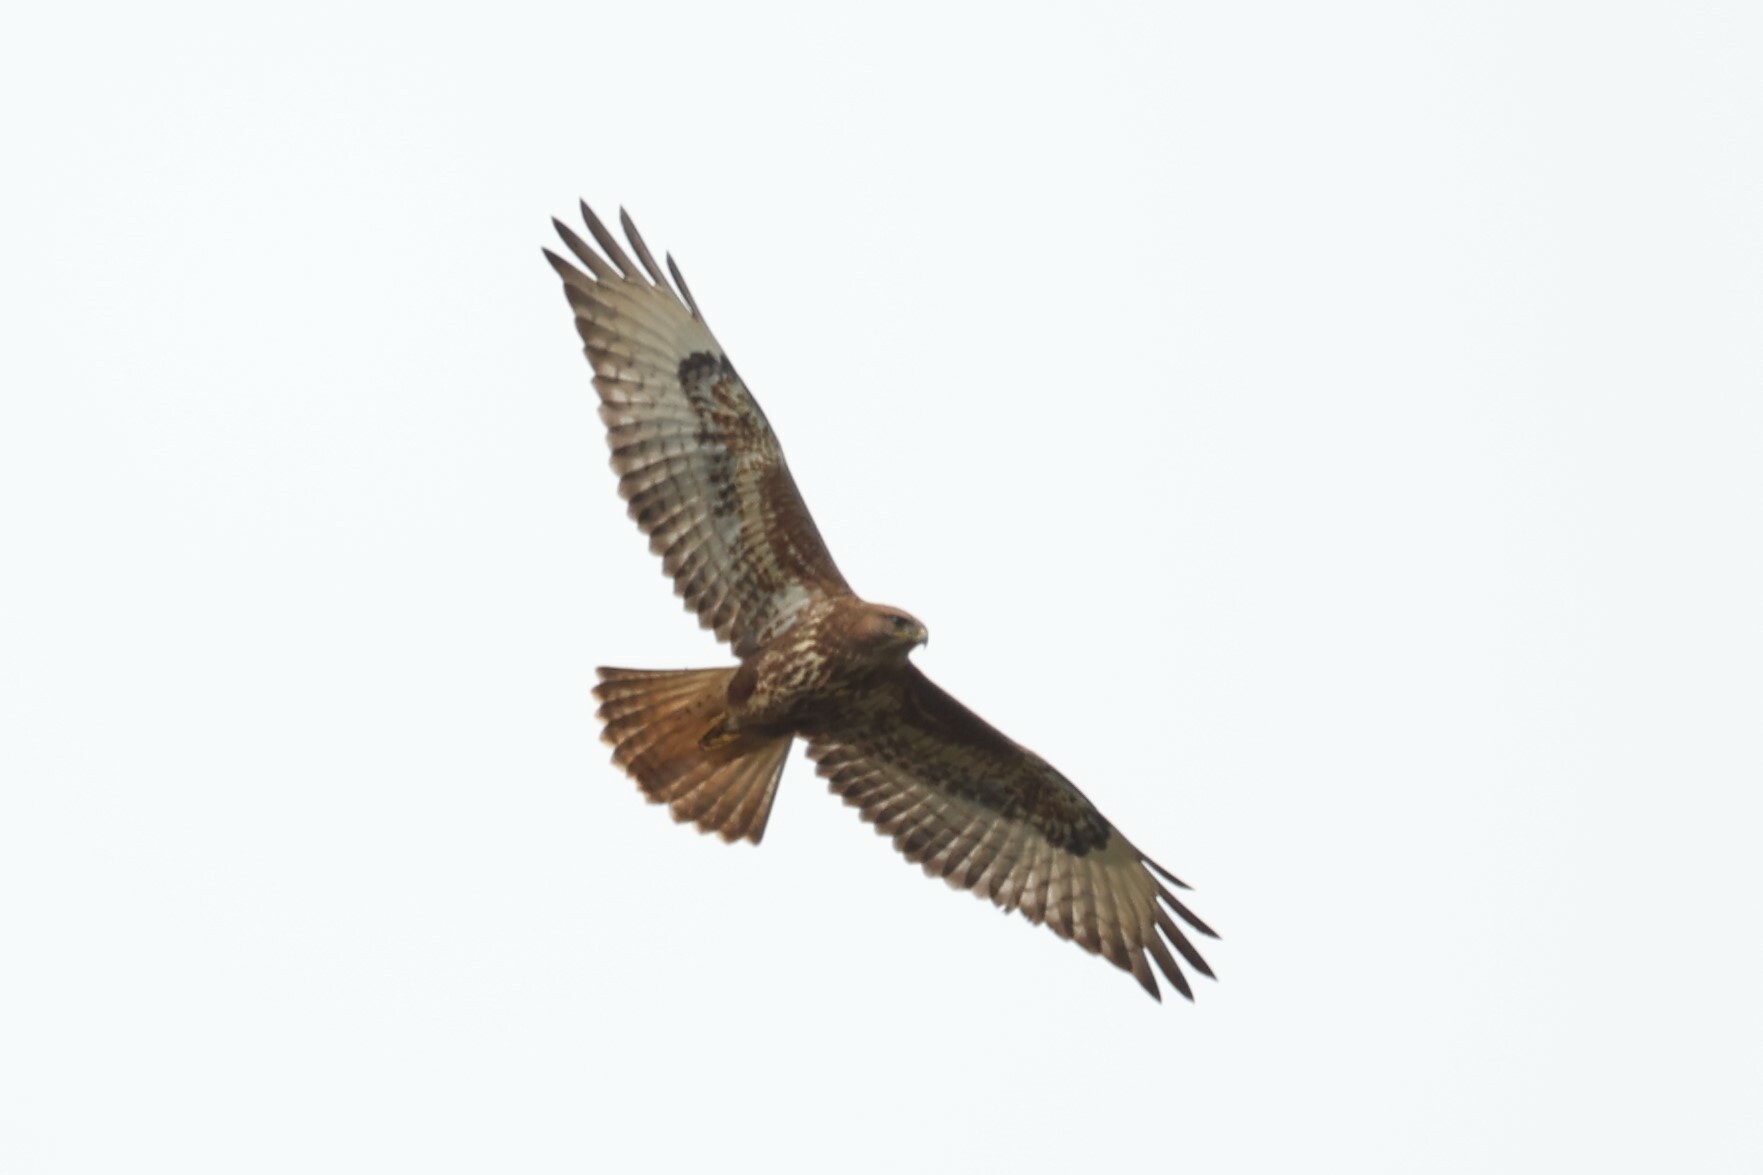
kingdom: Animalia
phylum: Chordata
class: Aves
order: Accipitriformes
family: Accipitridae
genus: Buteo
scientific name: Buteo buteo
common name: Common buzzard
